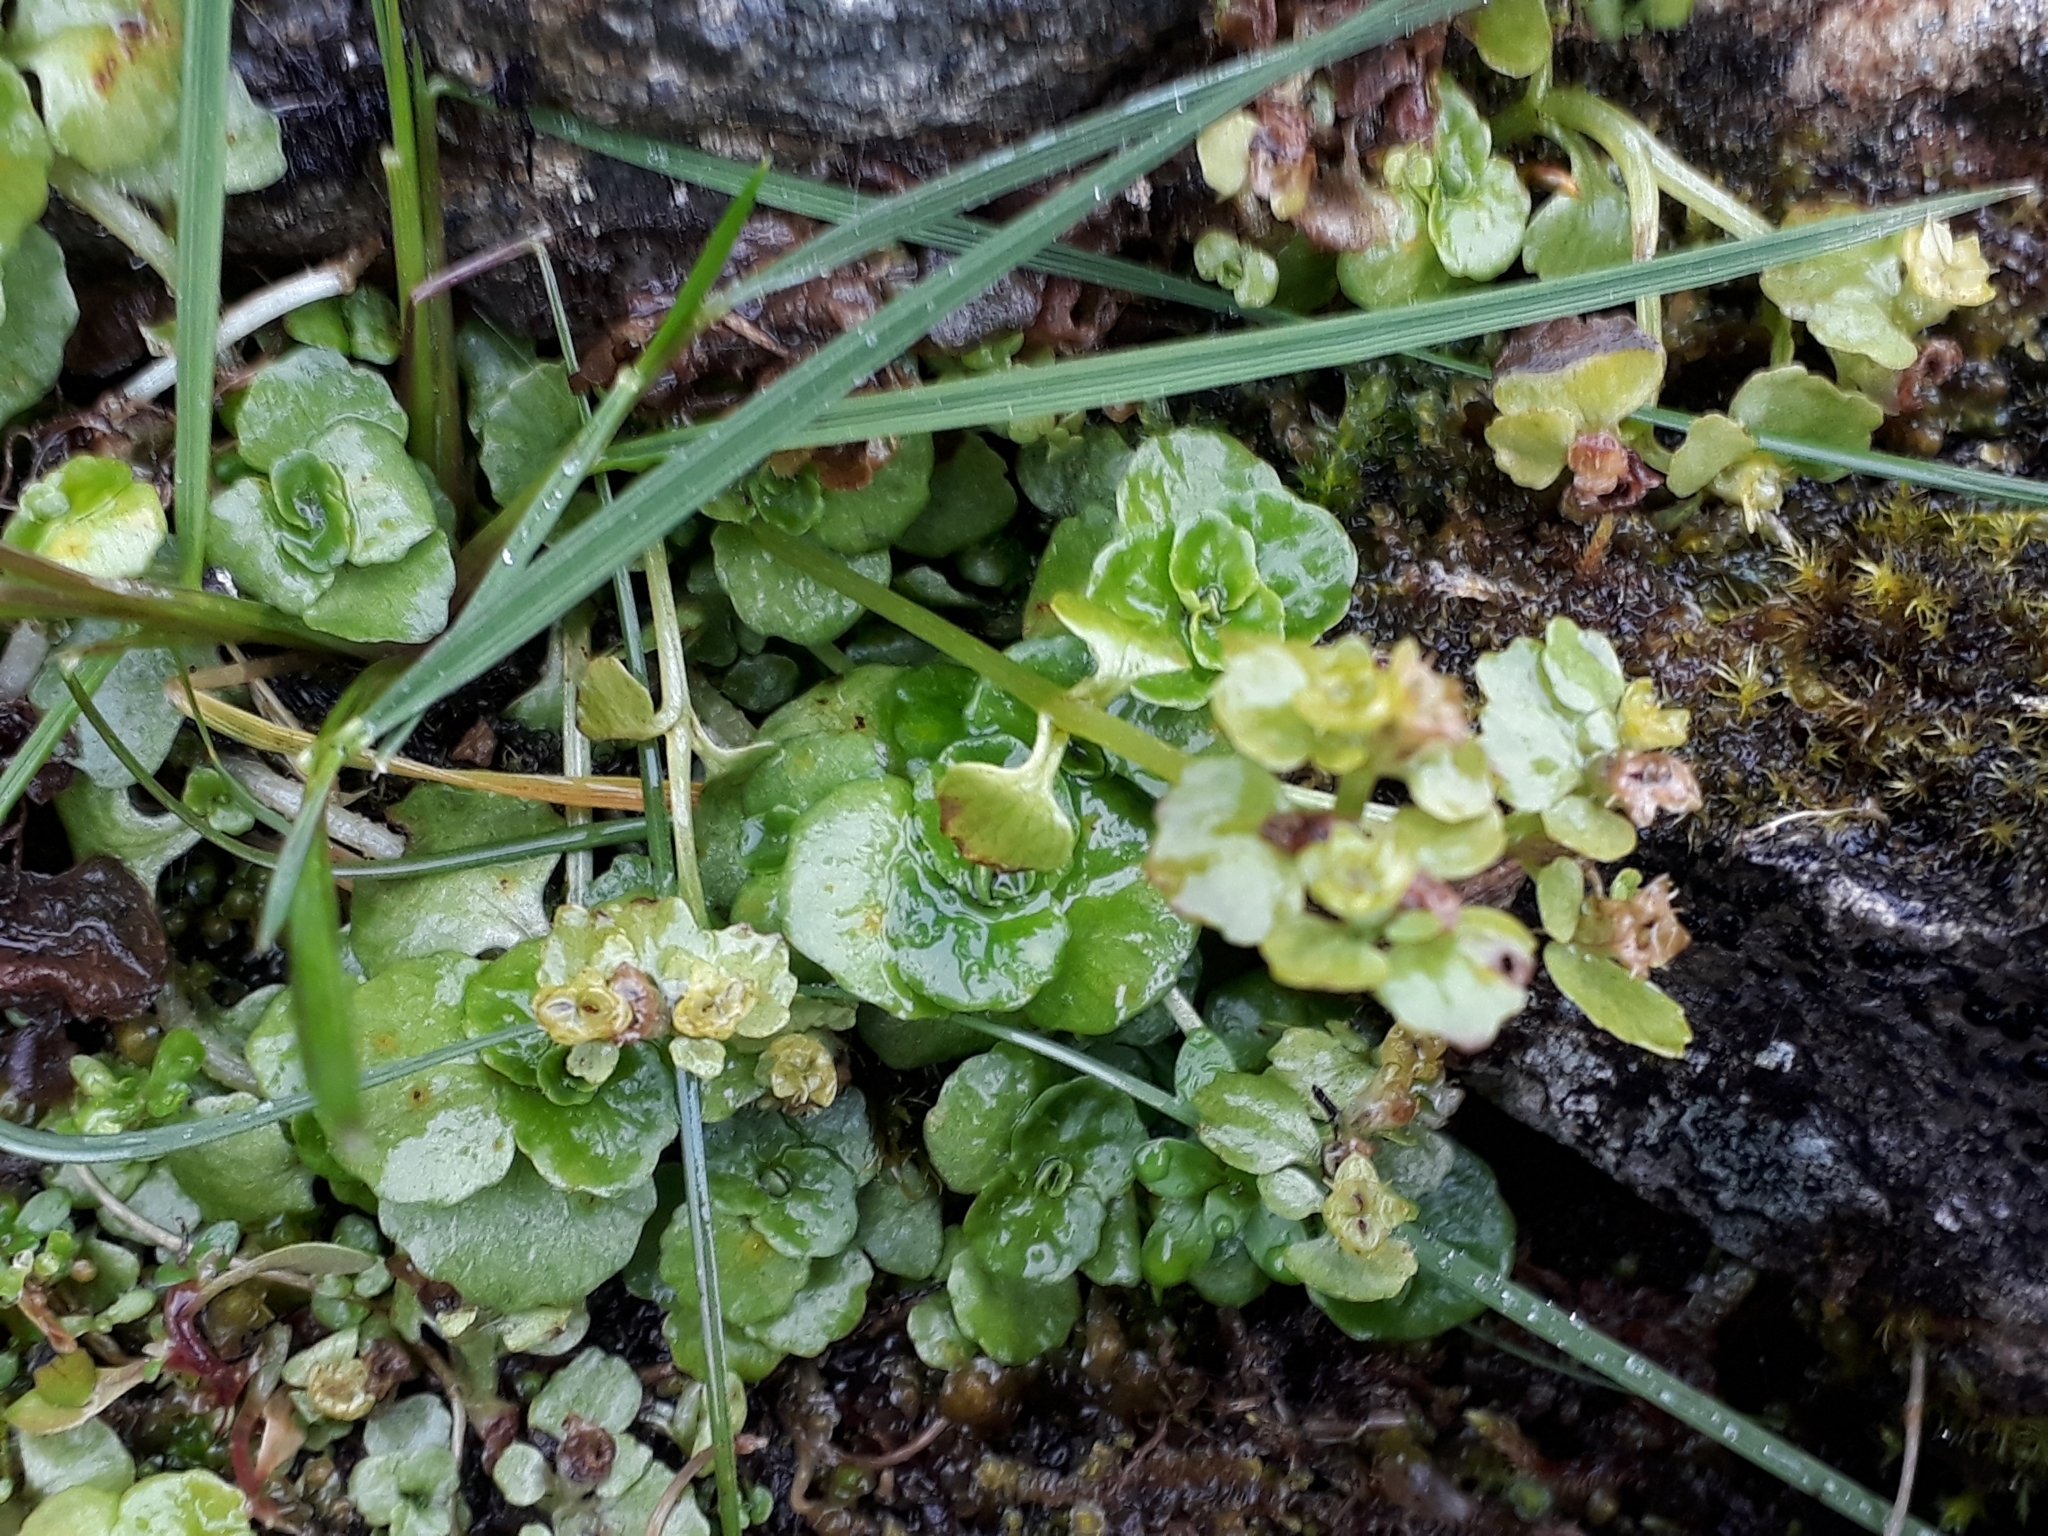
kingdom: Plantae
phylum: Tracheophyta
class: Magnoliopsida
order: Saxifragales
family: Saxifragaceae
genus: Chrysosplenium
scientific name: Chrysosplenium oppositifolium
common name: Opposite-leaved golden-saxifrage
